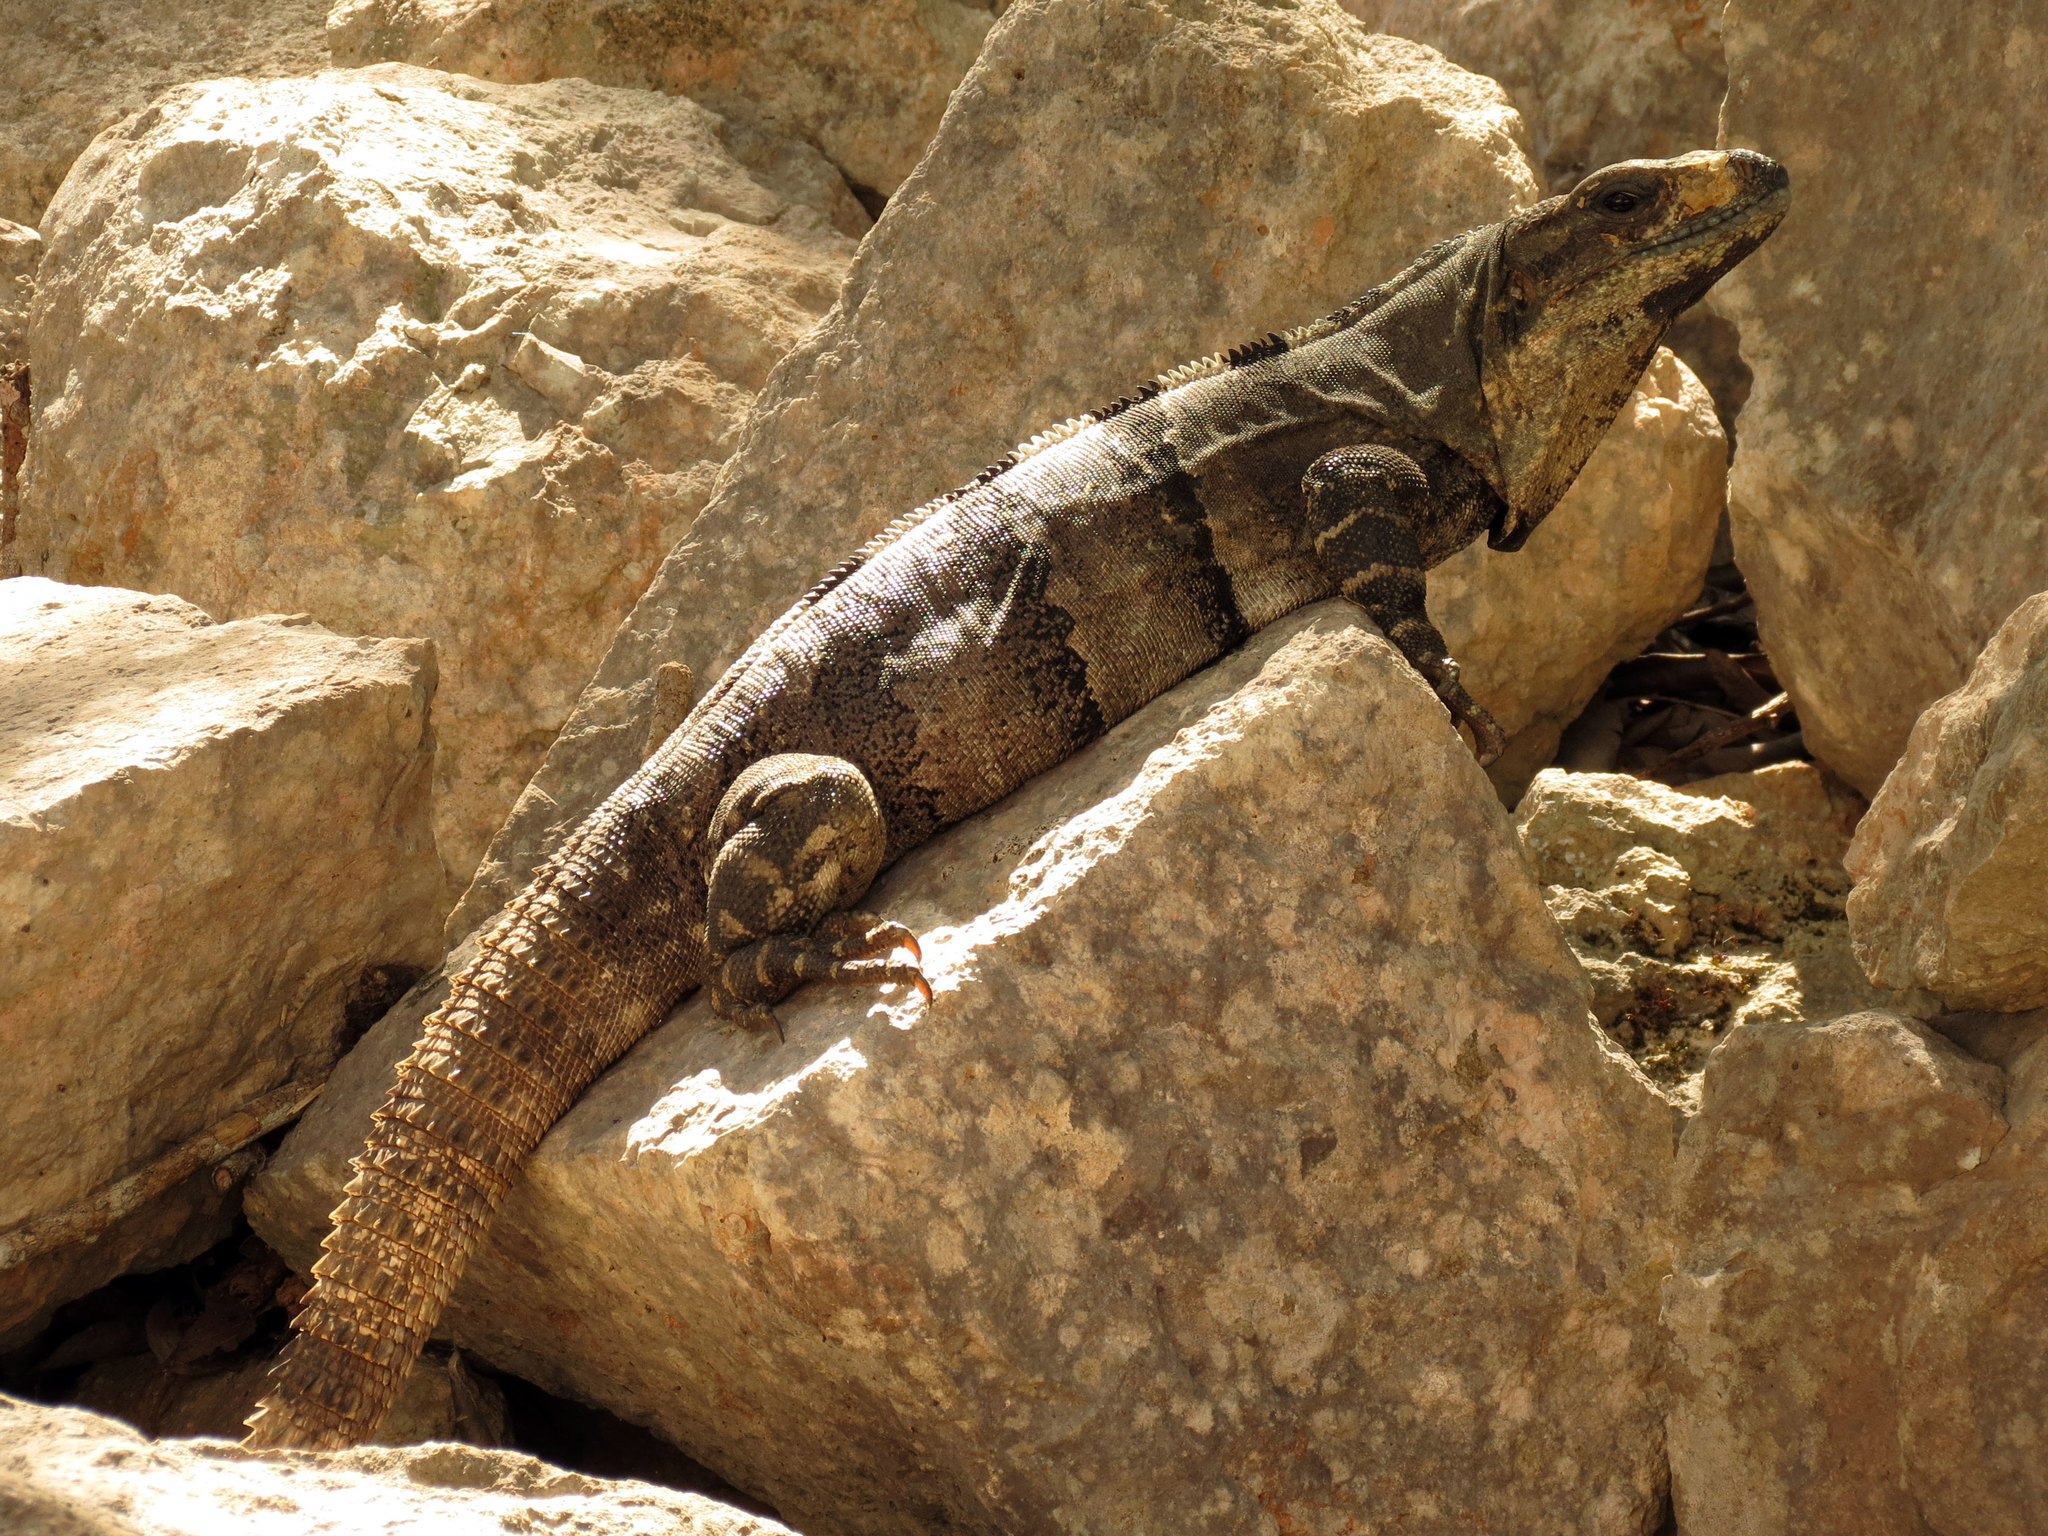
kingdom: Animalia
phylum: Chordata
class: Squamata
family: Iguanidae
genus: Ctenosaura
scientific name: Ctenosaura similis
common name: Black spiny-tailed iguana
